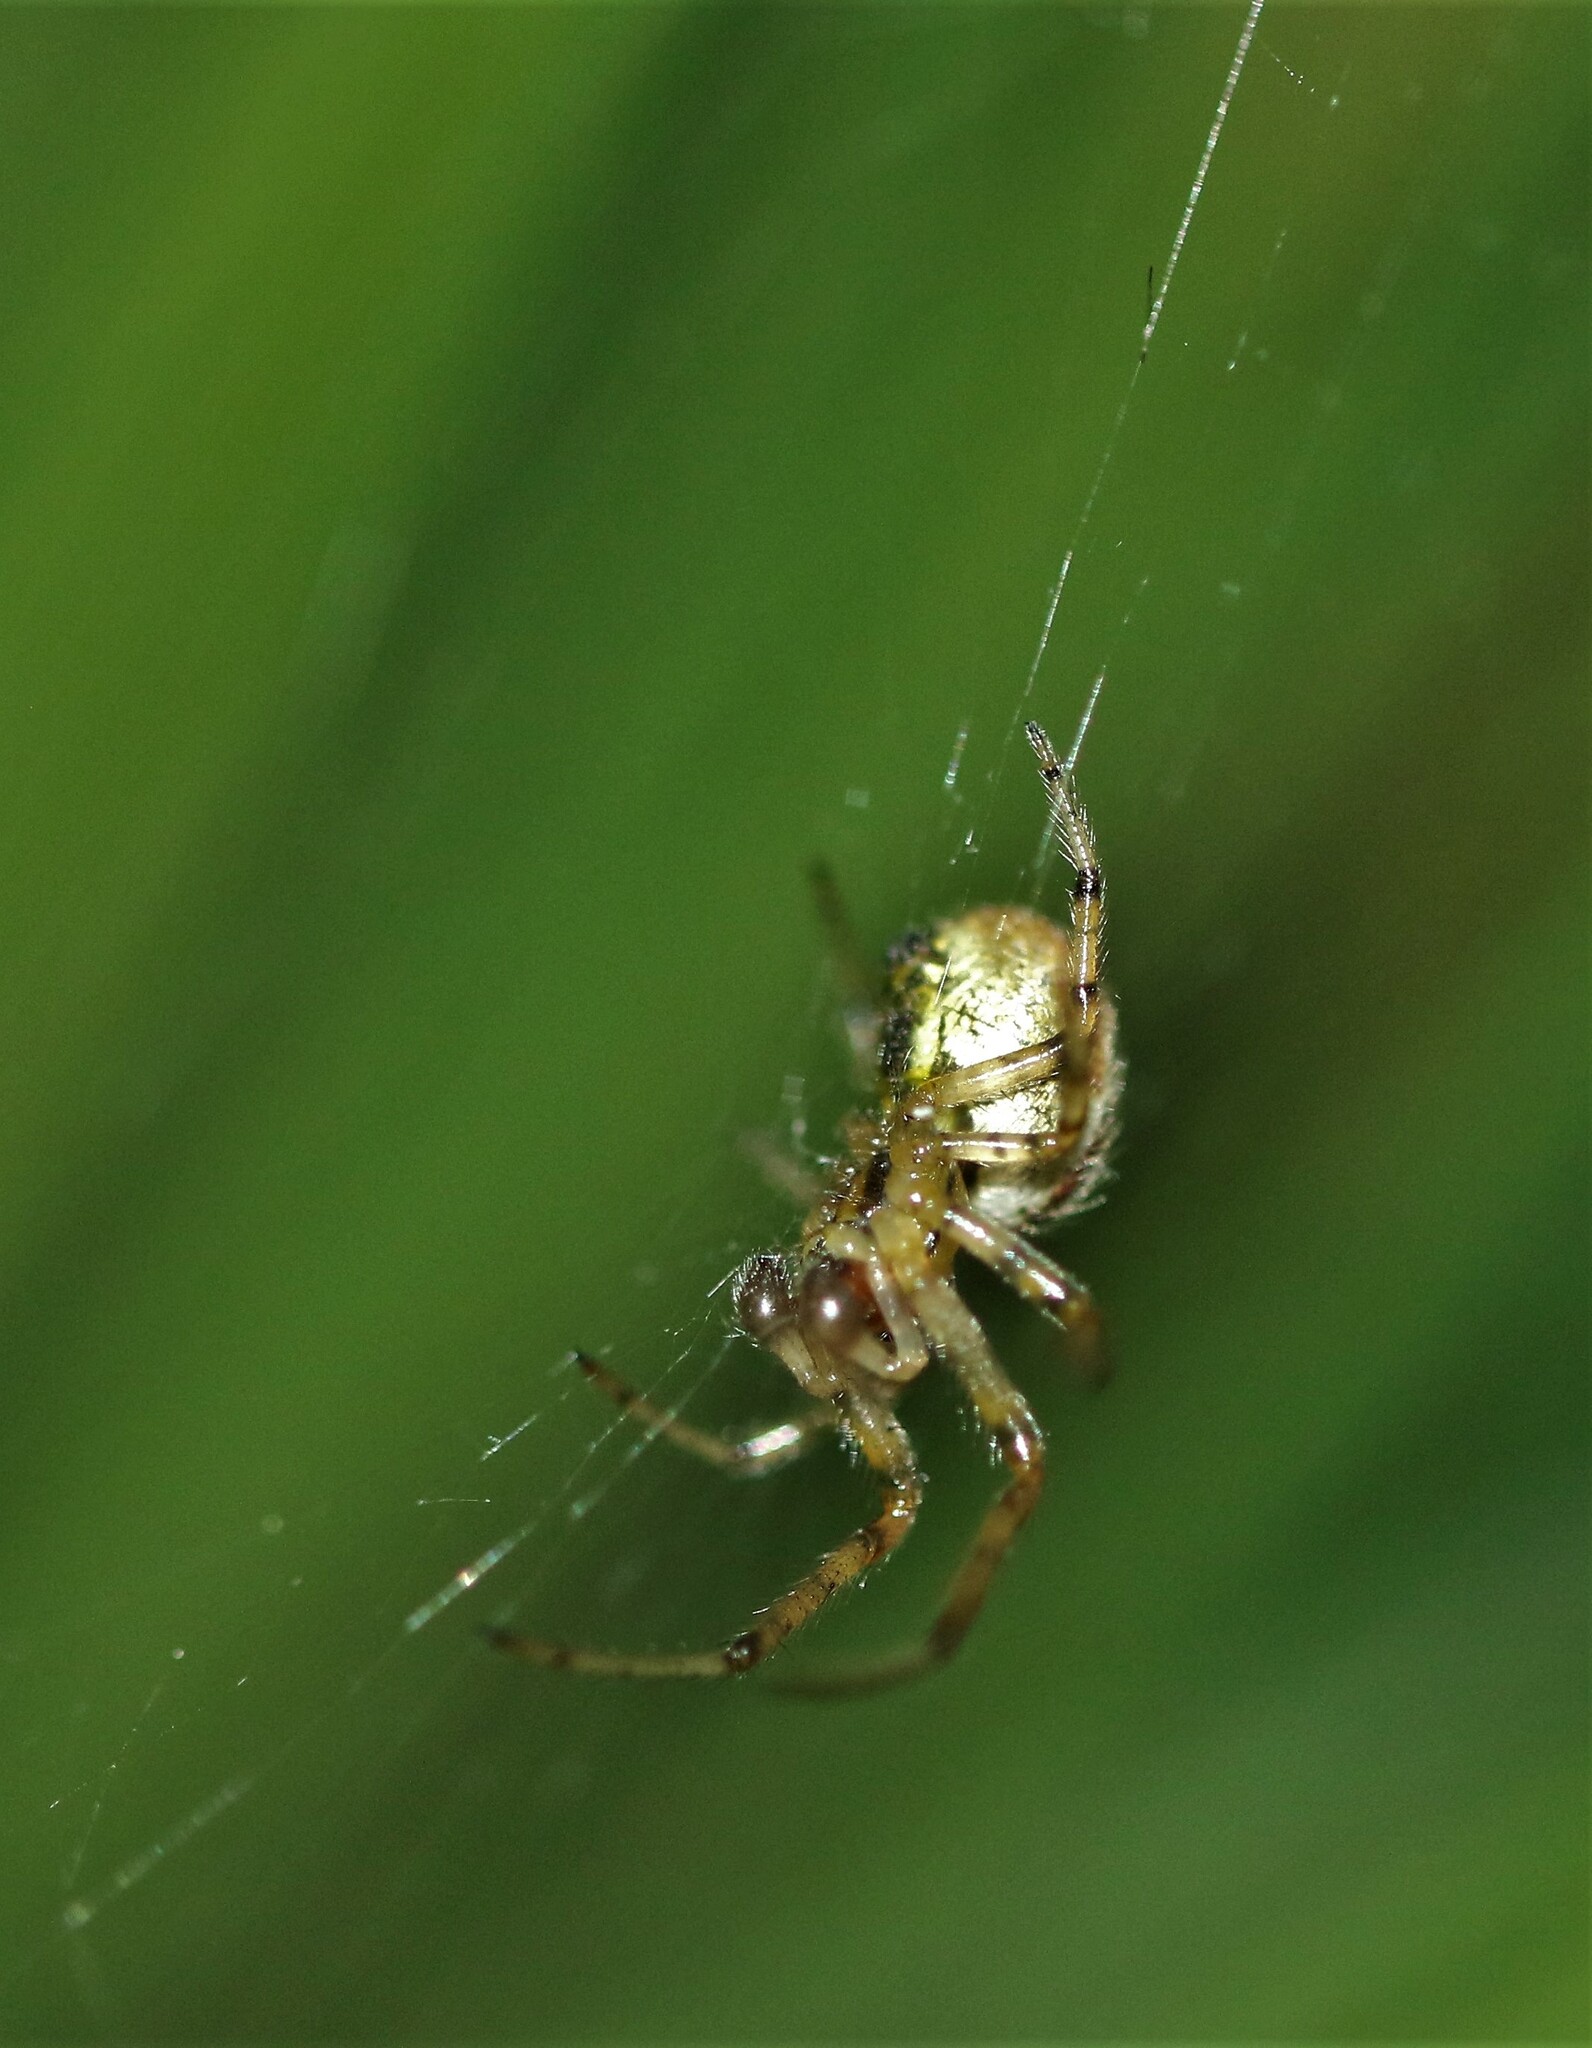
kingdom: Animalia
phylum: Arthropoda
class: Arachnida
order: Araneae
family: Araneidae
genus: Zygiella
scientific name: Zygiella atrica
